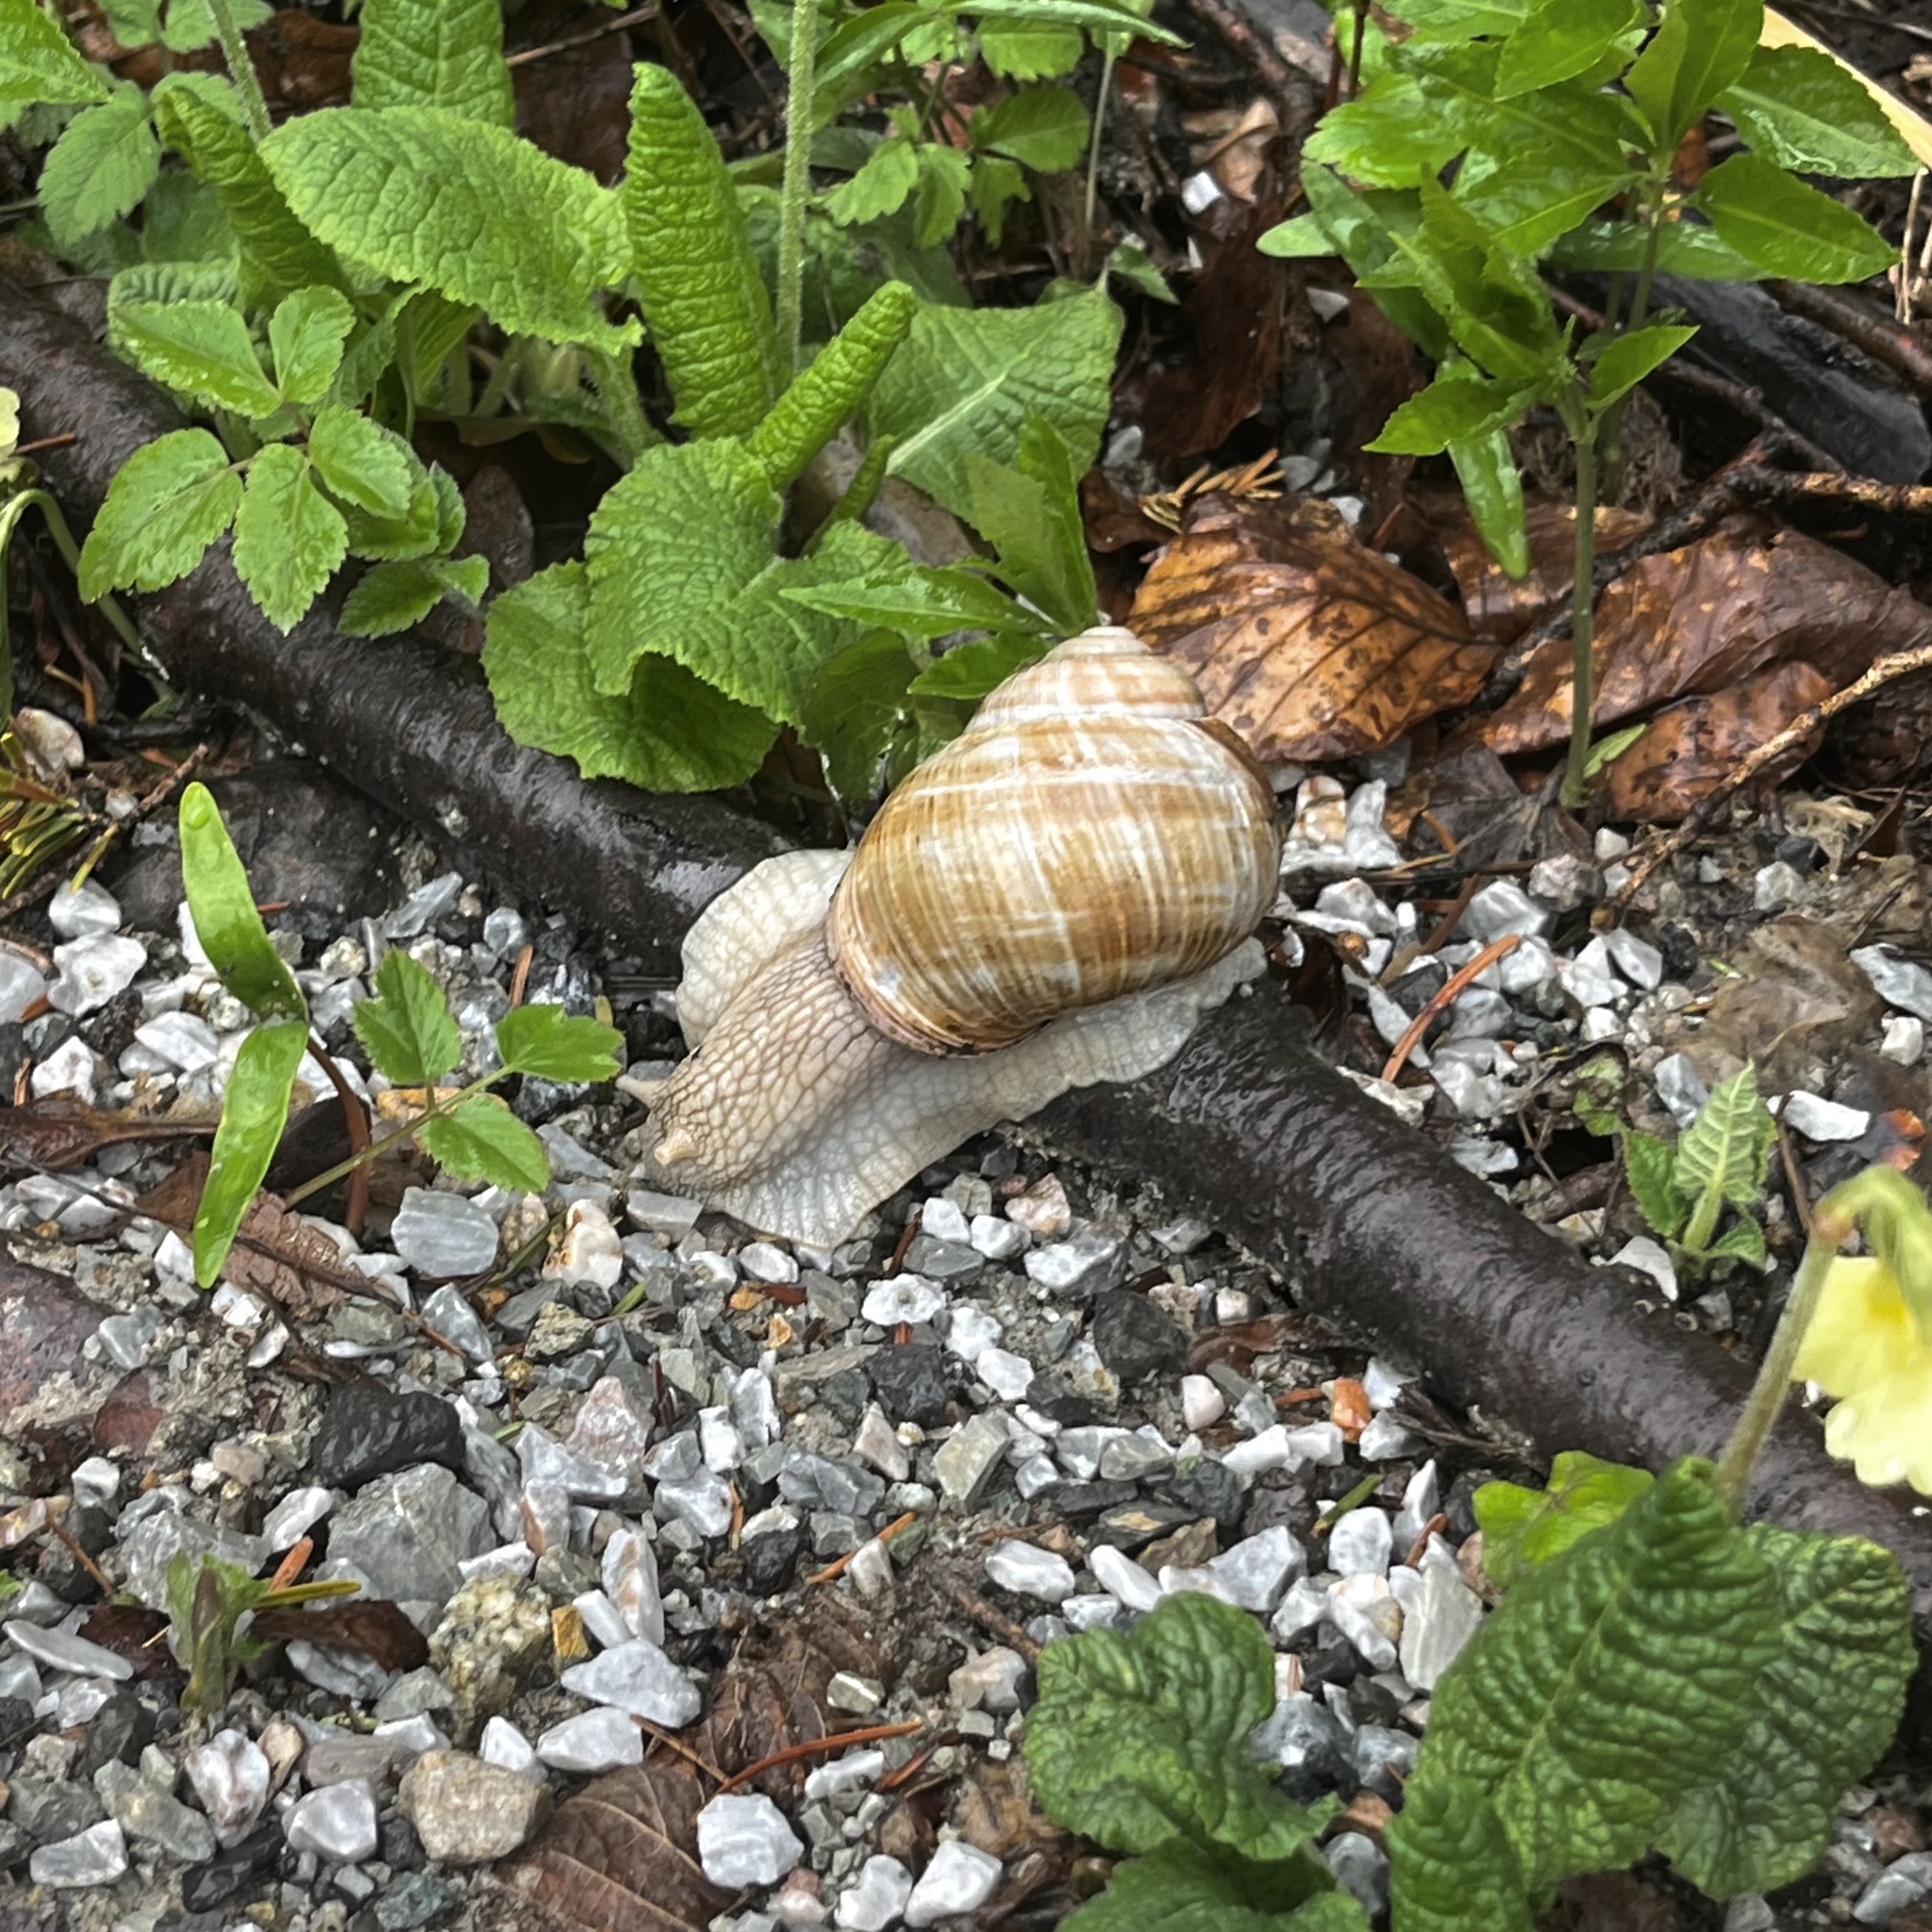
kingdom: Animalia
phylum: Mollusca
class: Gastropoda
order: Stylommatophora
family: Helicidae
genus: Helix
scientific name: Helix pomatia
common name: Roman snail
